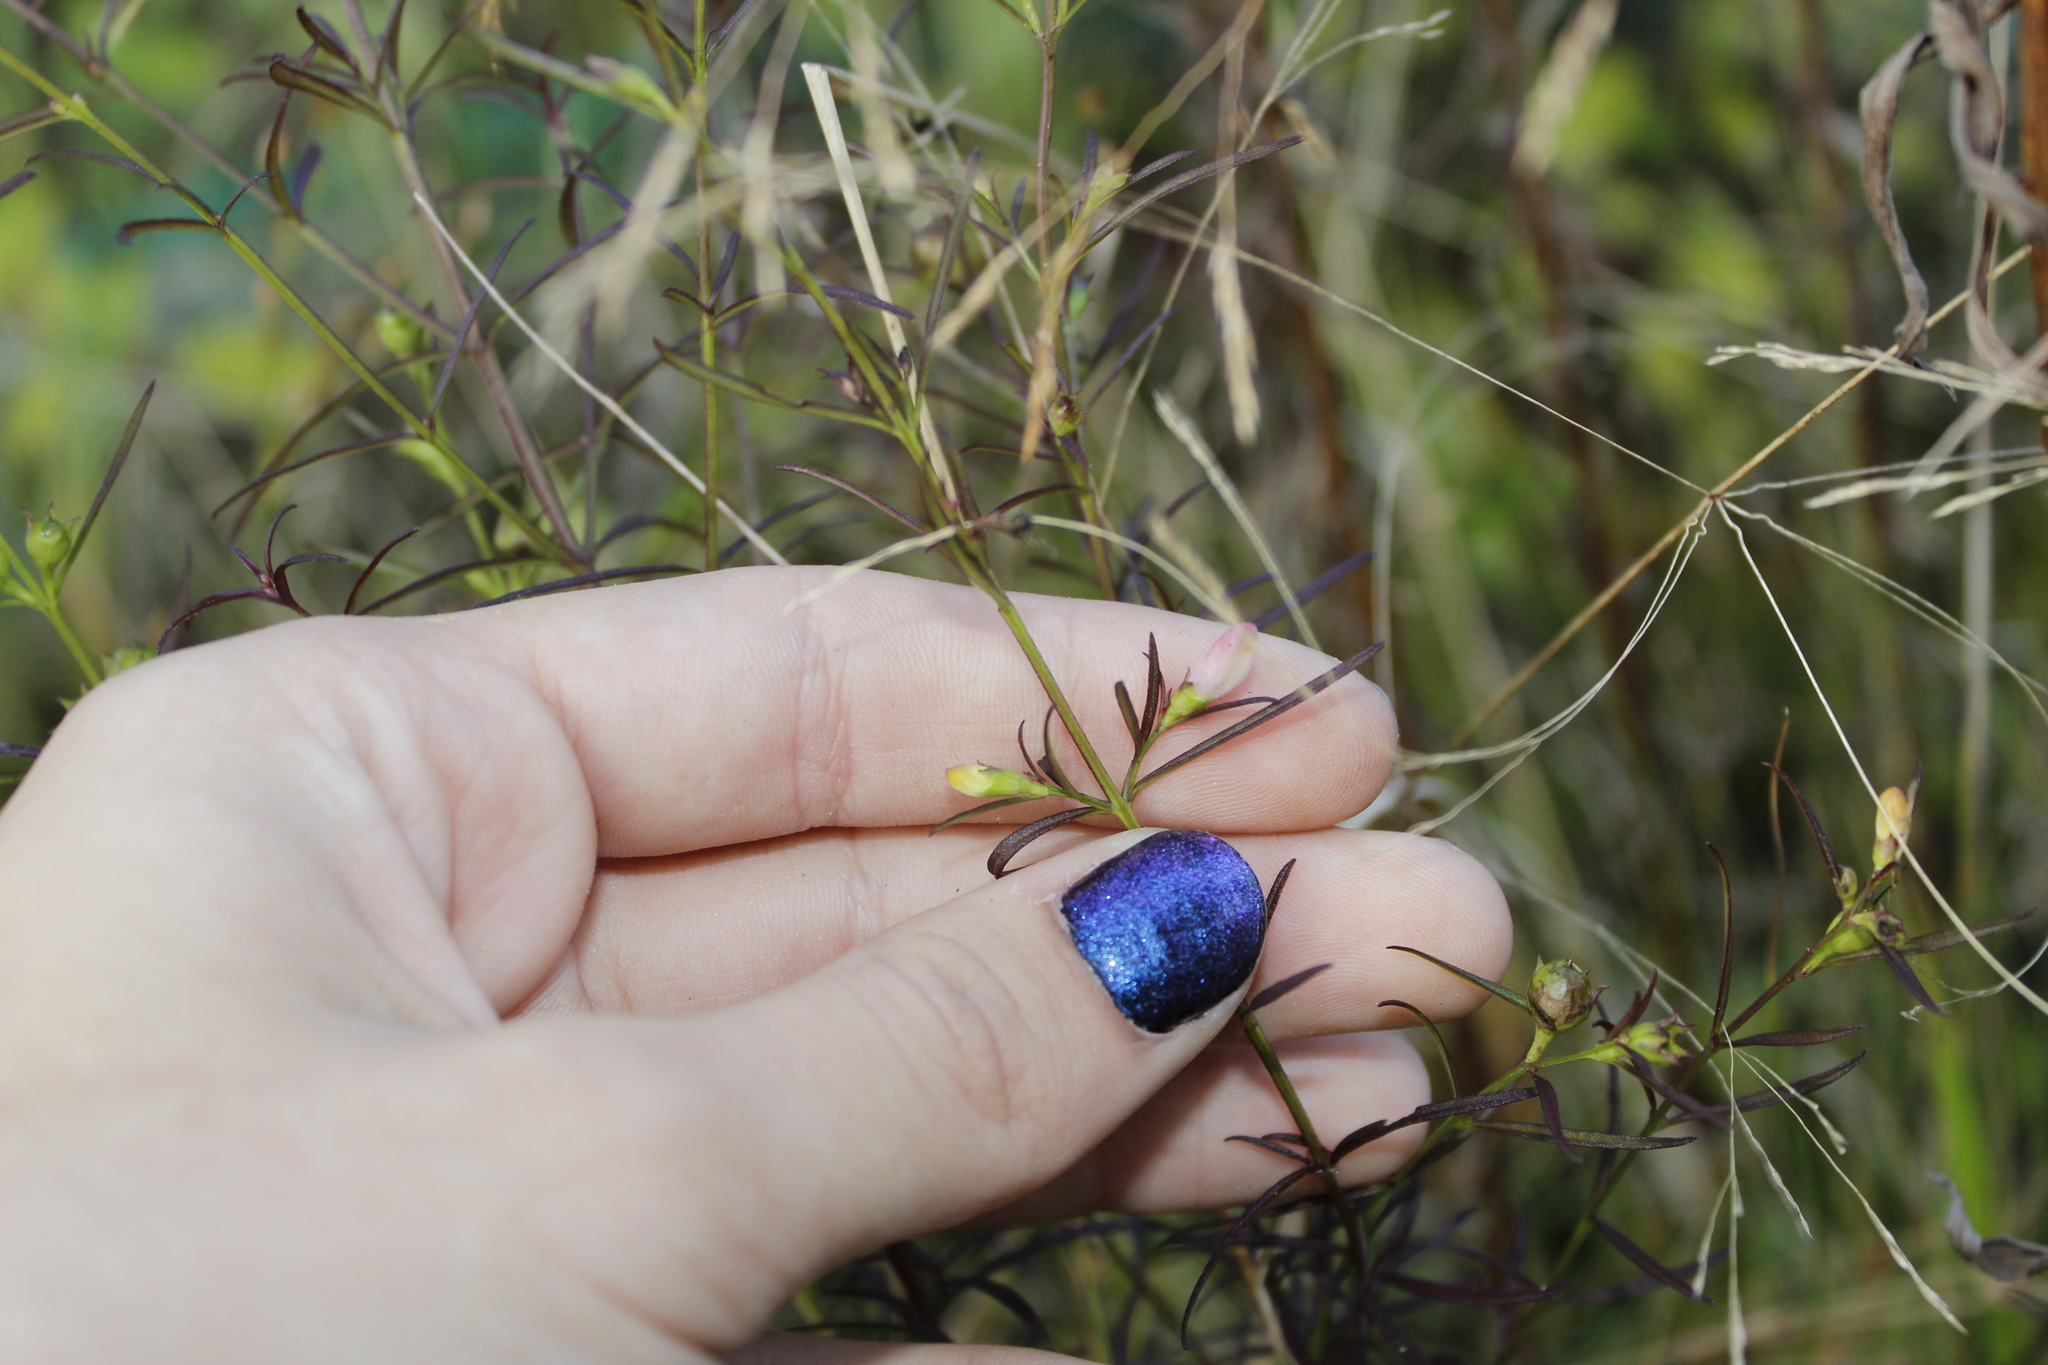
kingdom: Plantae
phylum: Tracheophyta
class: Magnoliopsida
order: Lamiales
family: Orobanchaceae
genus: Agalinis
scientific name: Agalinis purpurea
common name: Purple false foxglove
